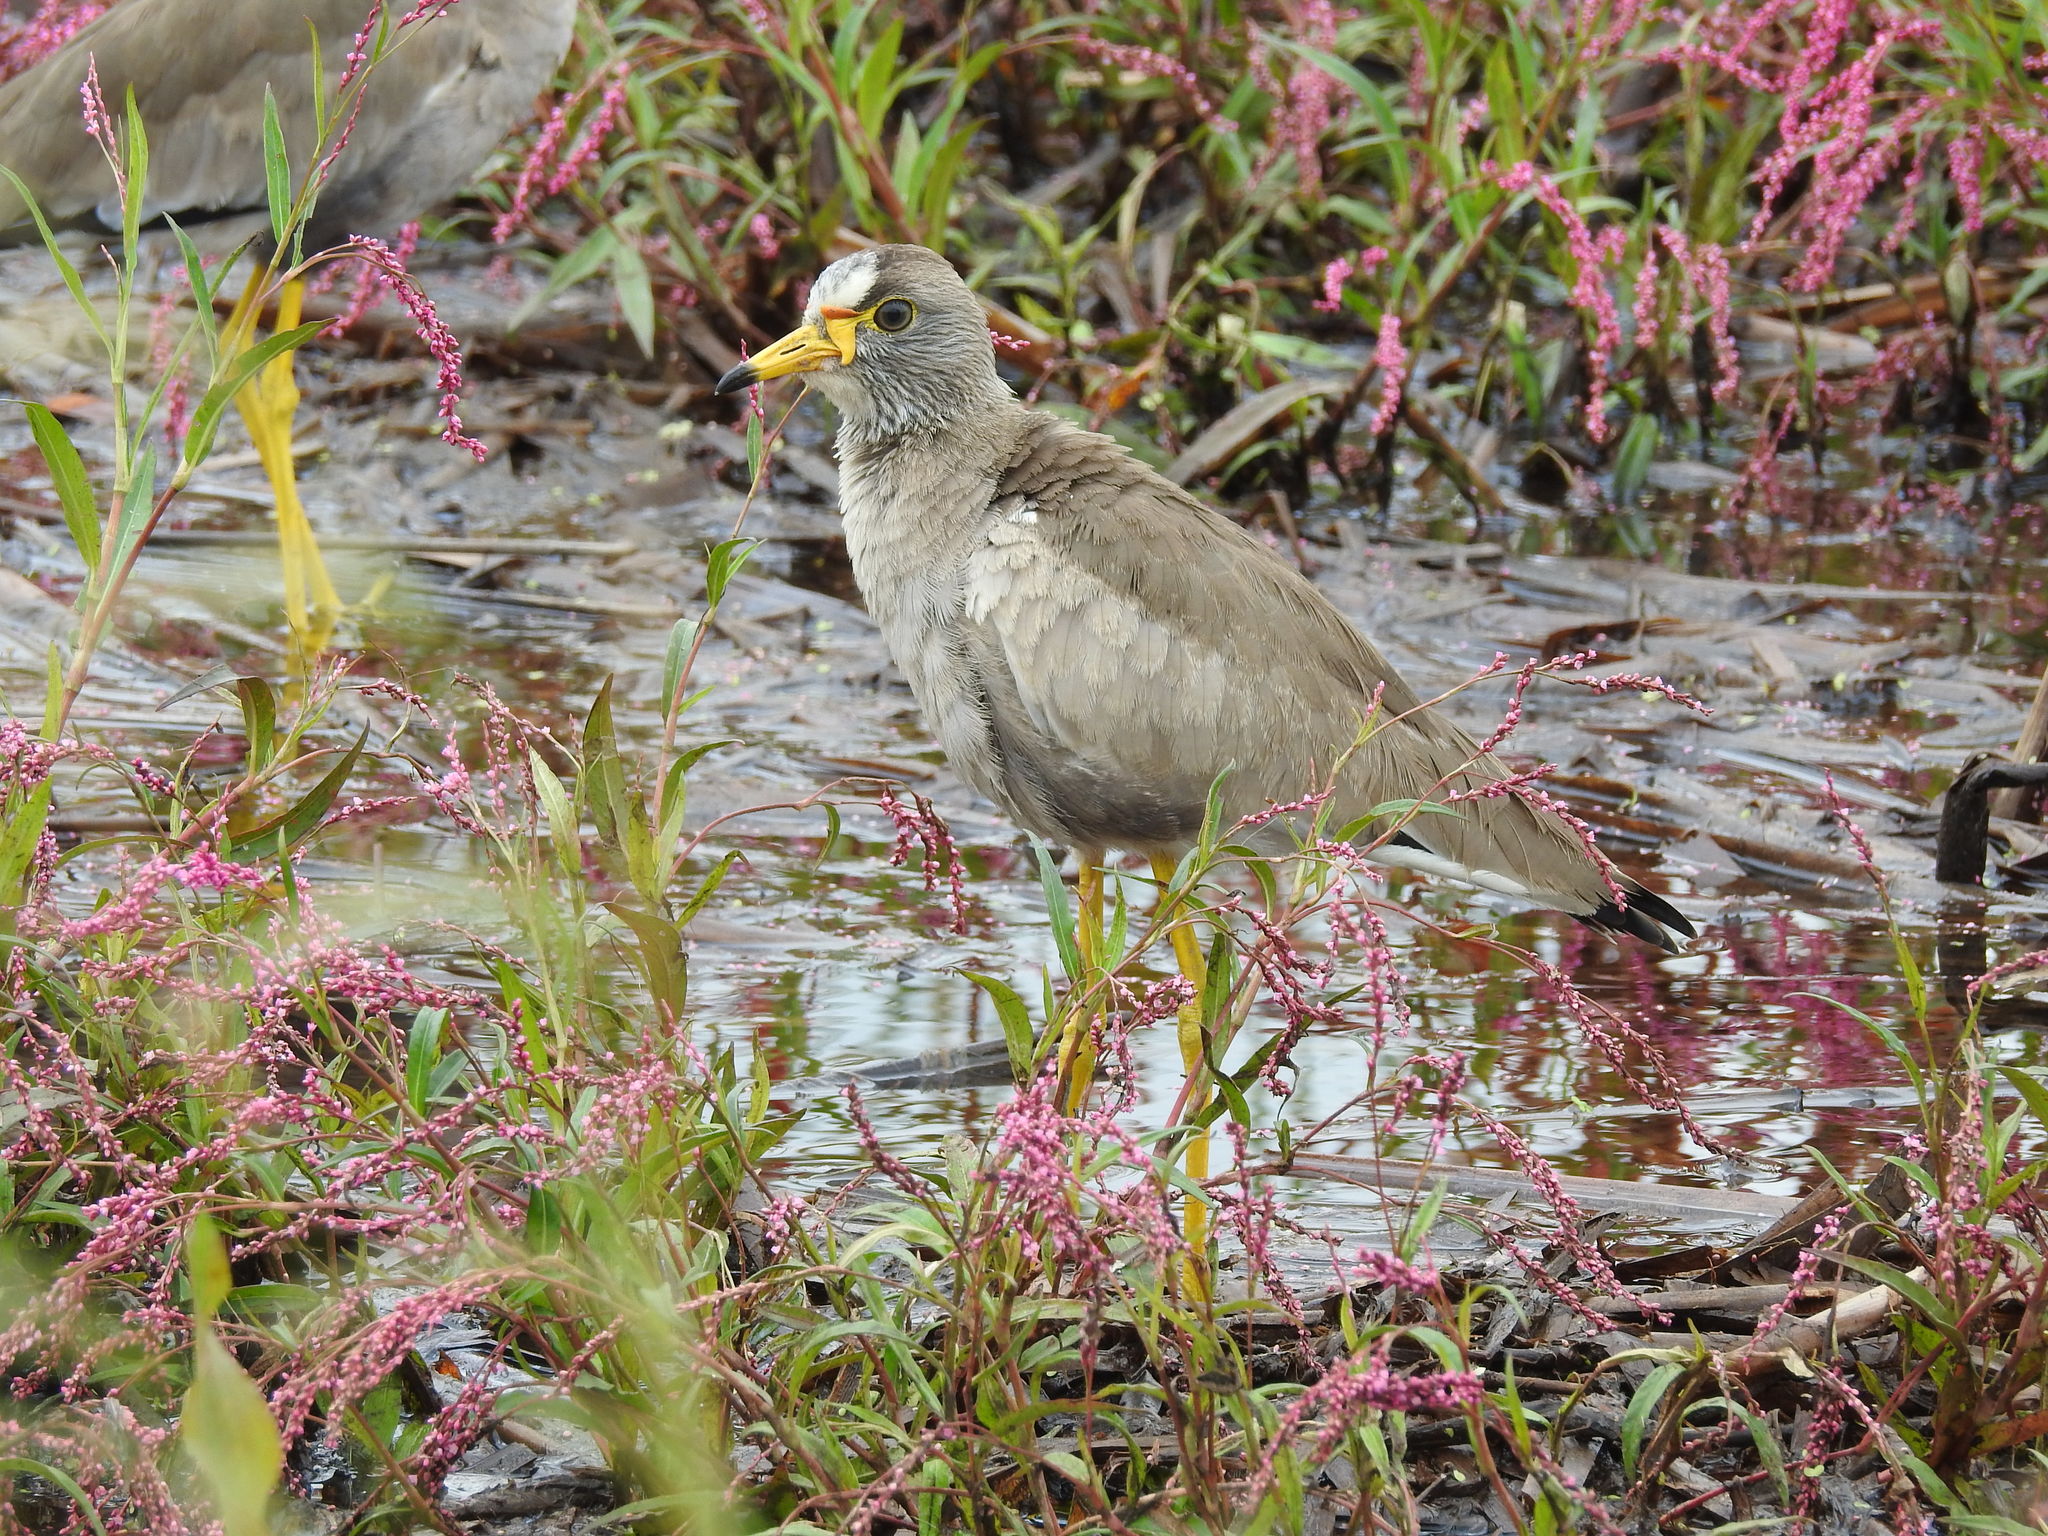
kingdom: Animalia
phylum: Chordata
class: Aves
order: Charadriiformes
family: Charadriidae
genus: Vanellus
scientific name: Vanellus senegallus
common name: African wattled lapwing
